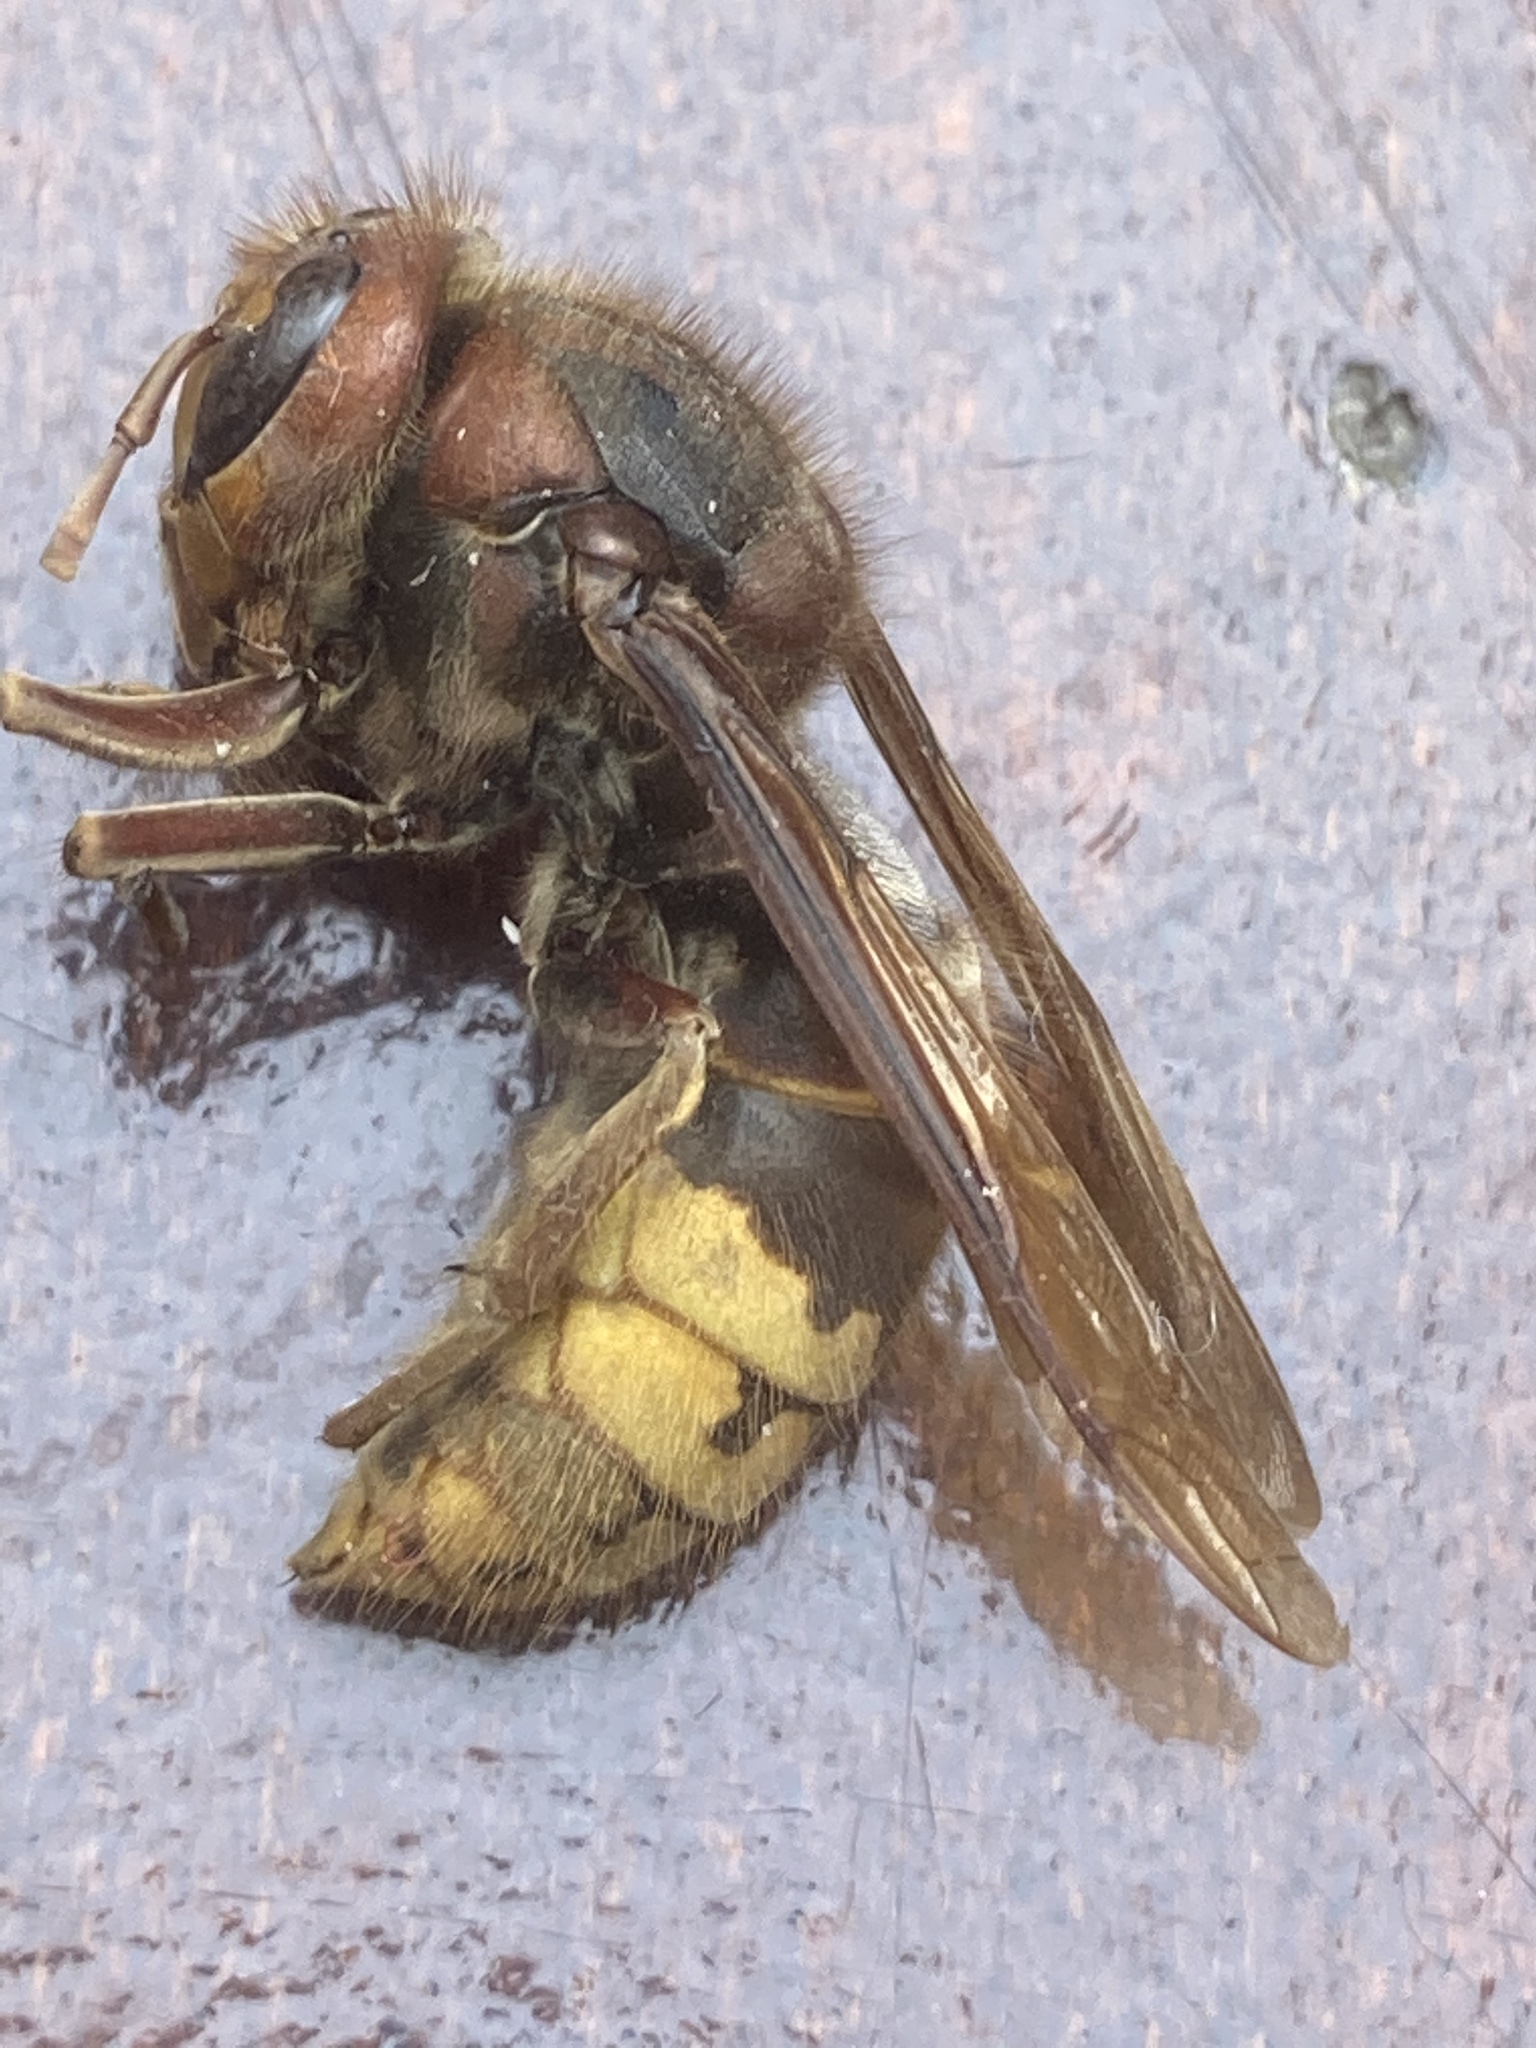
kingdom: Animalia
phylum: Arthropoda
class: Insecta
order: Hymenoptera
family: Vespidae
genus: Vespa
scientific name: Vespa crabro
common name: Hornet
